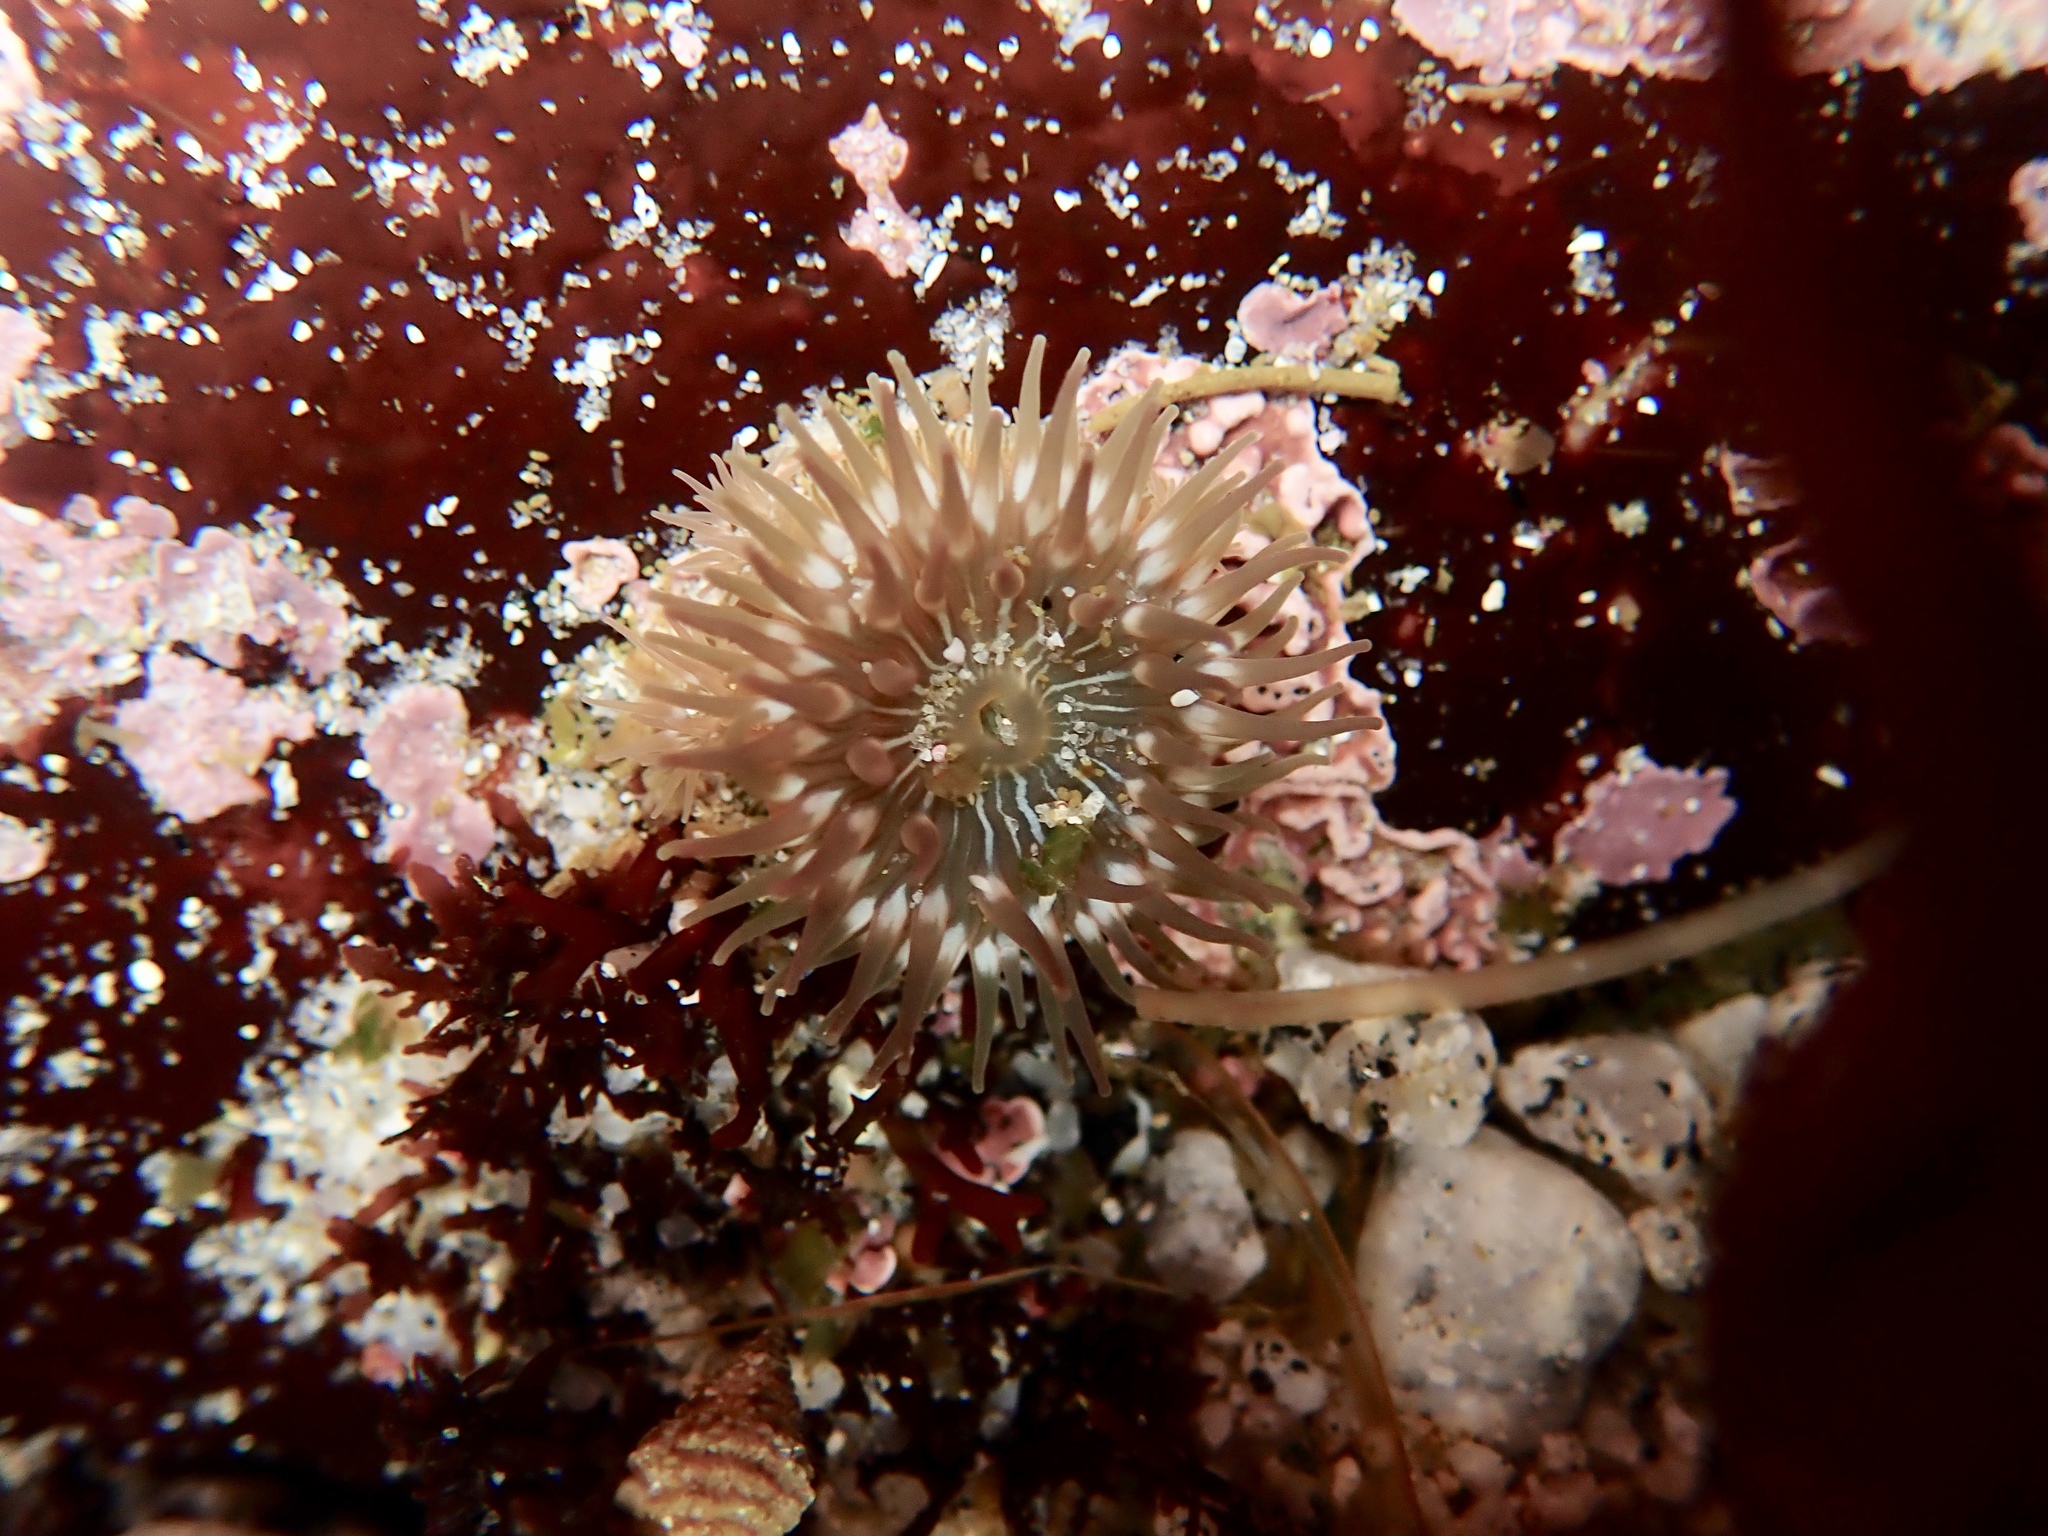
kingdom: Animalia
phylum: Cnidaria
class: Anthozoa
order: Actiniaria
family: Actiniidae
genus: Epiactis
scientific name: Epiactis prolifera
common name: Brooding anemone
